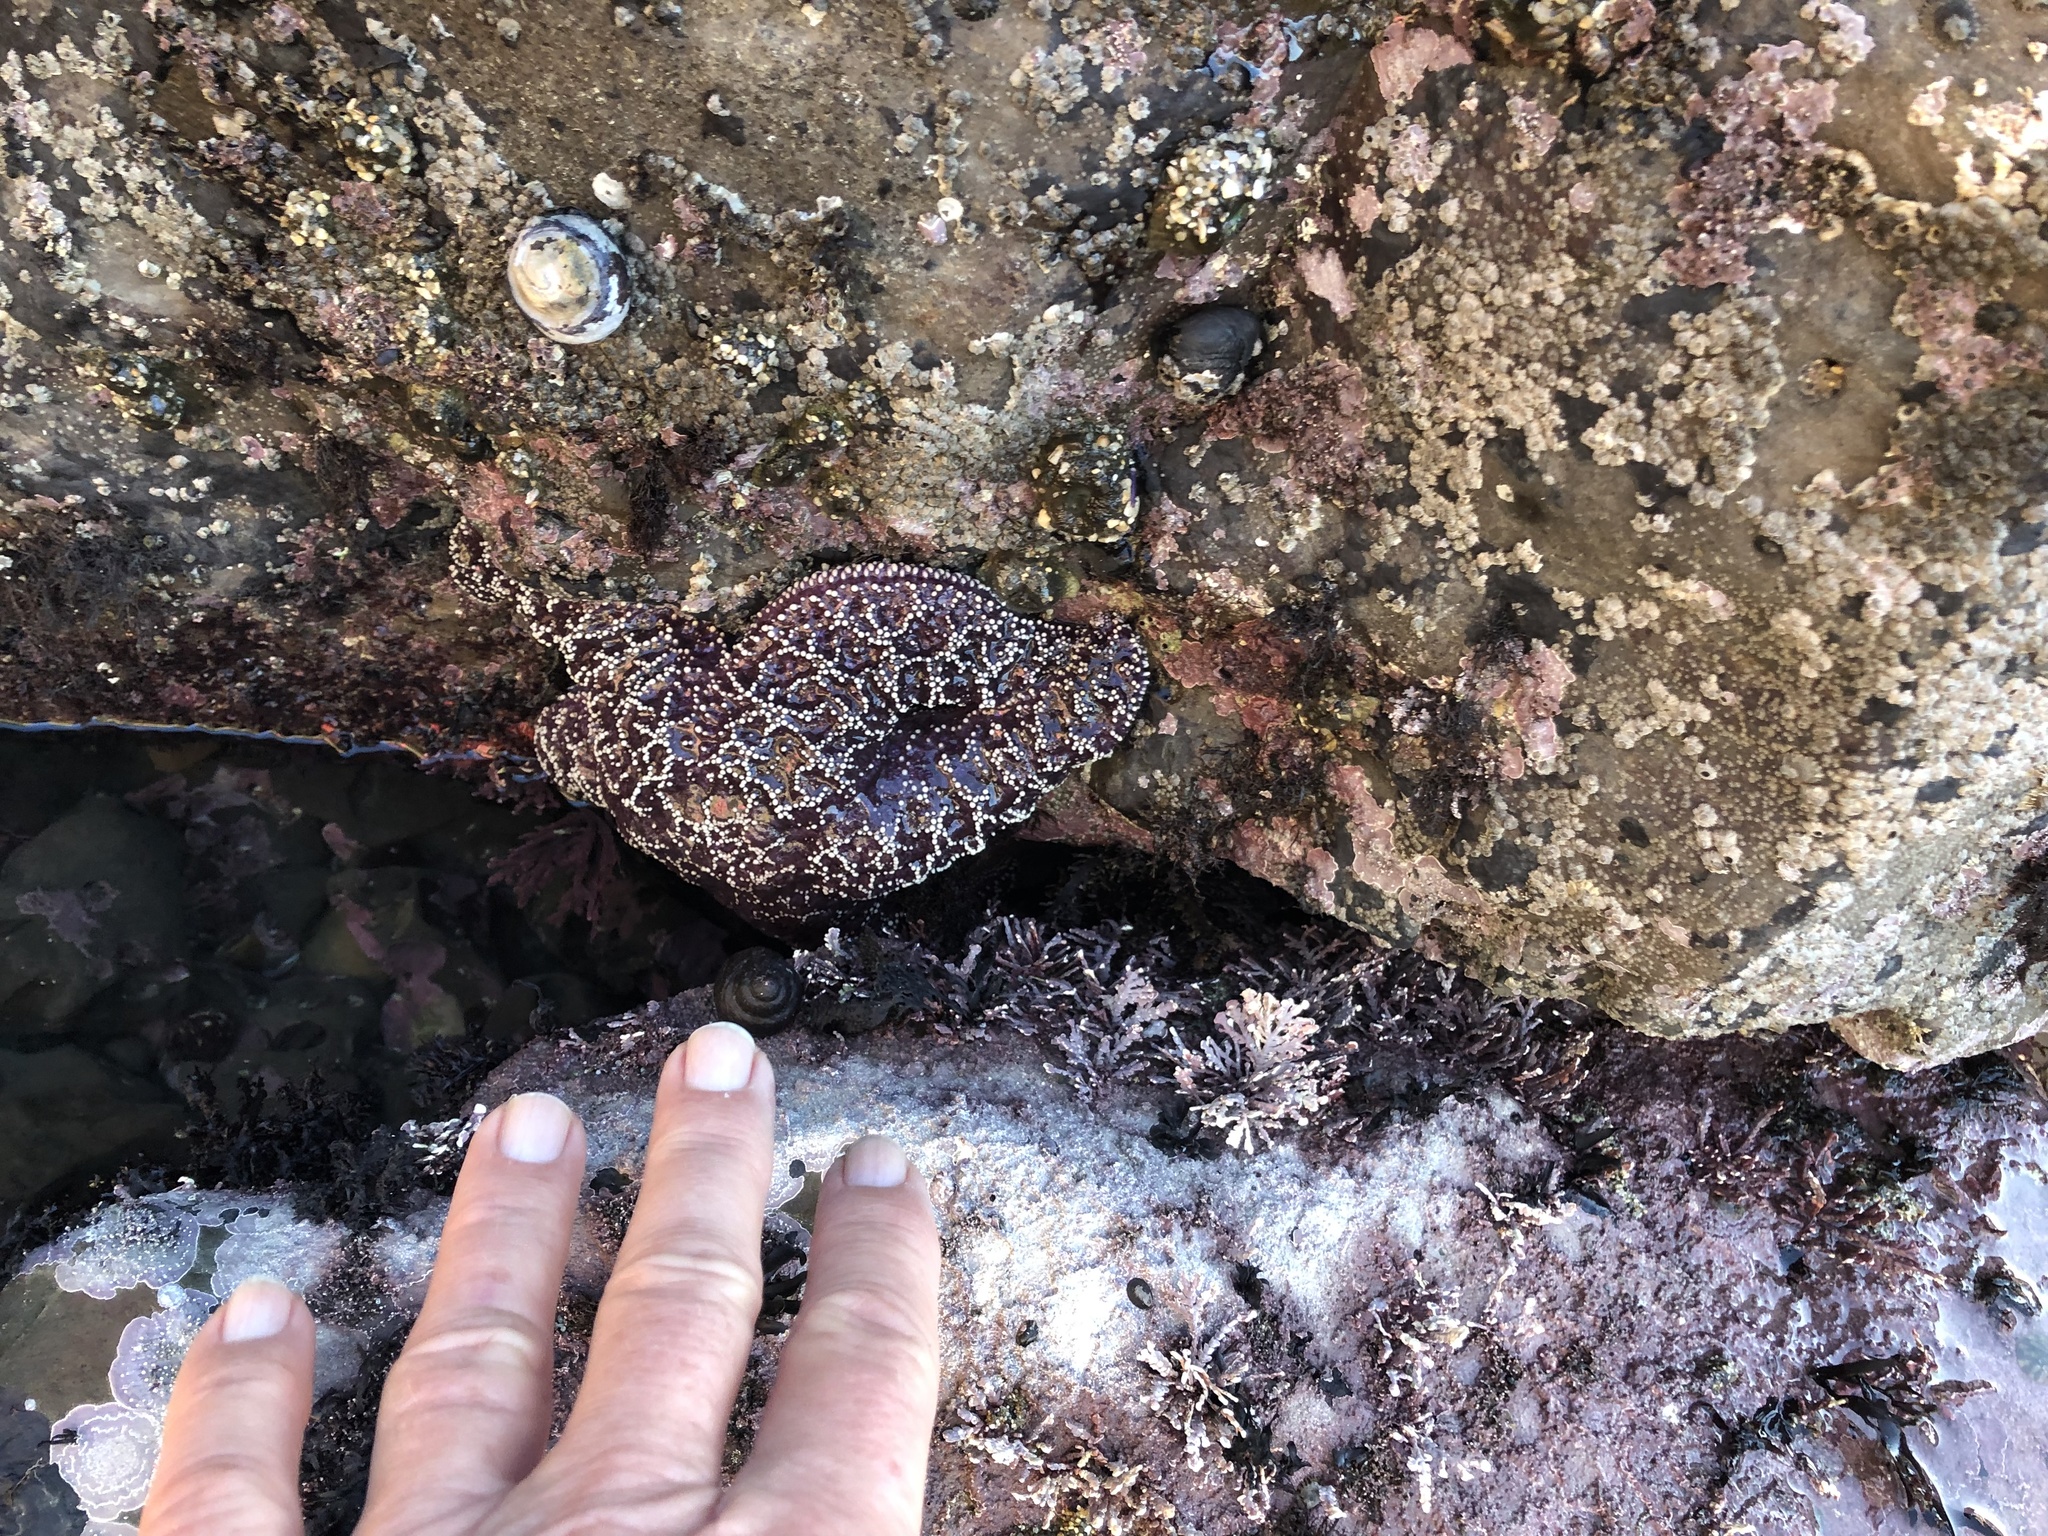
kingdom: Animalia
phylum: Echinodermata
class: Asteroidea
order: Forcipulatida
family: Asteriidae
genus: Pisaster
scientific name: Pisaster ochraceus
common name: Ochre stars
